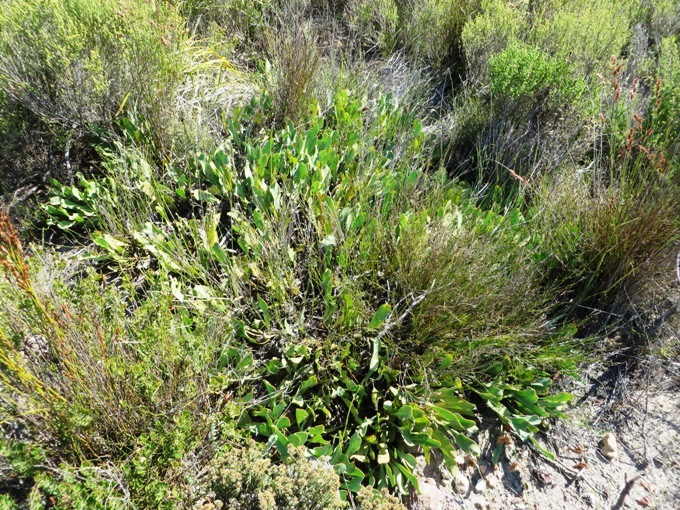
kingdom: Plantae
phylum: Tracheophyta
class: Magnoliopsida
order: Proteales
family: Proteaceae
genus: Protea
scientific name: Protea acaulos
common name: Common ground sugarbush
